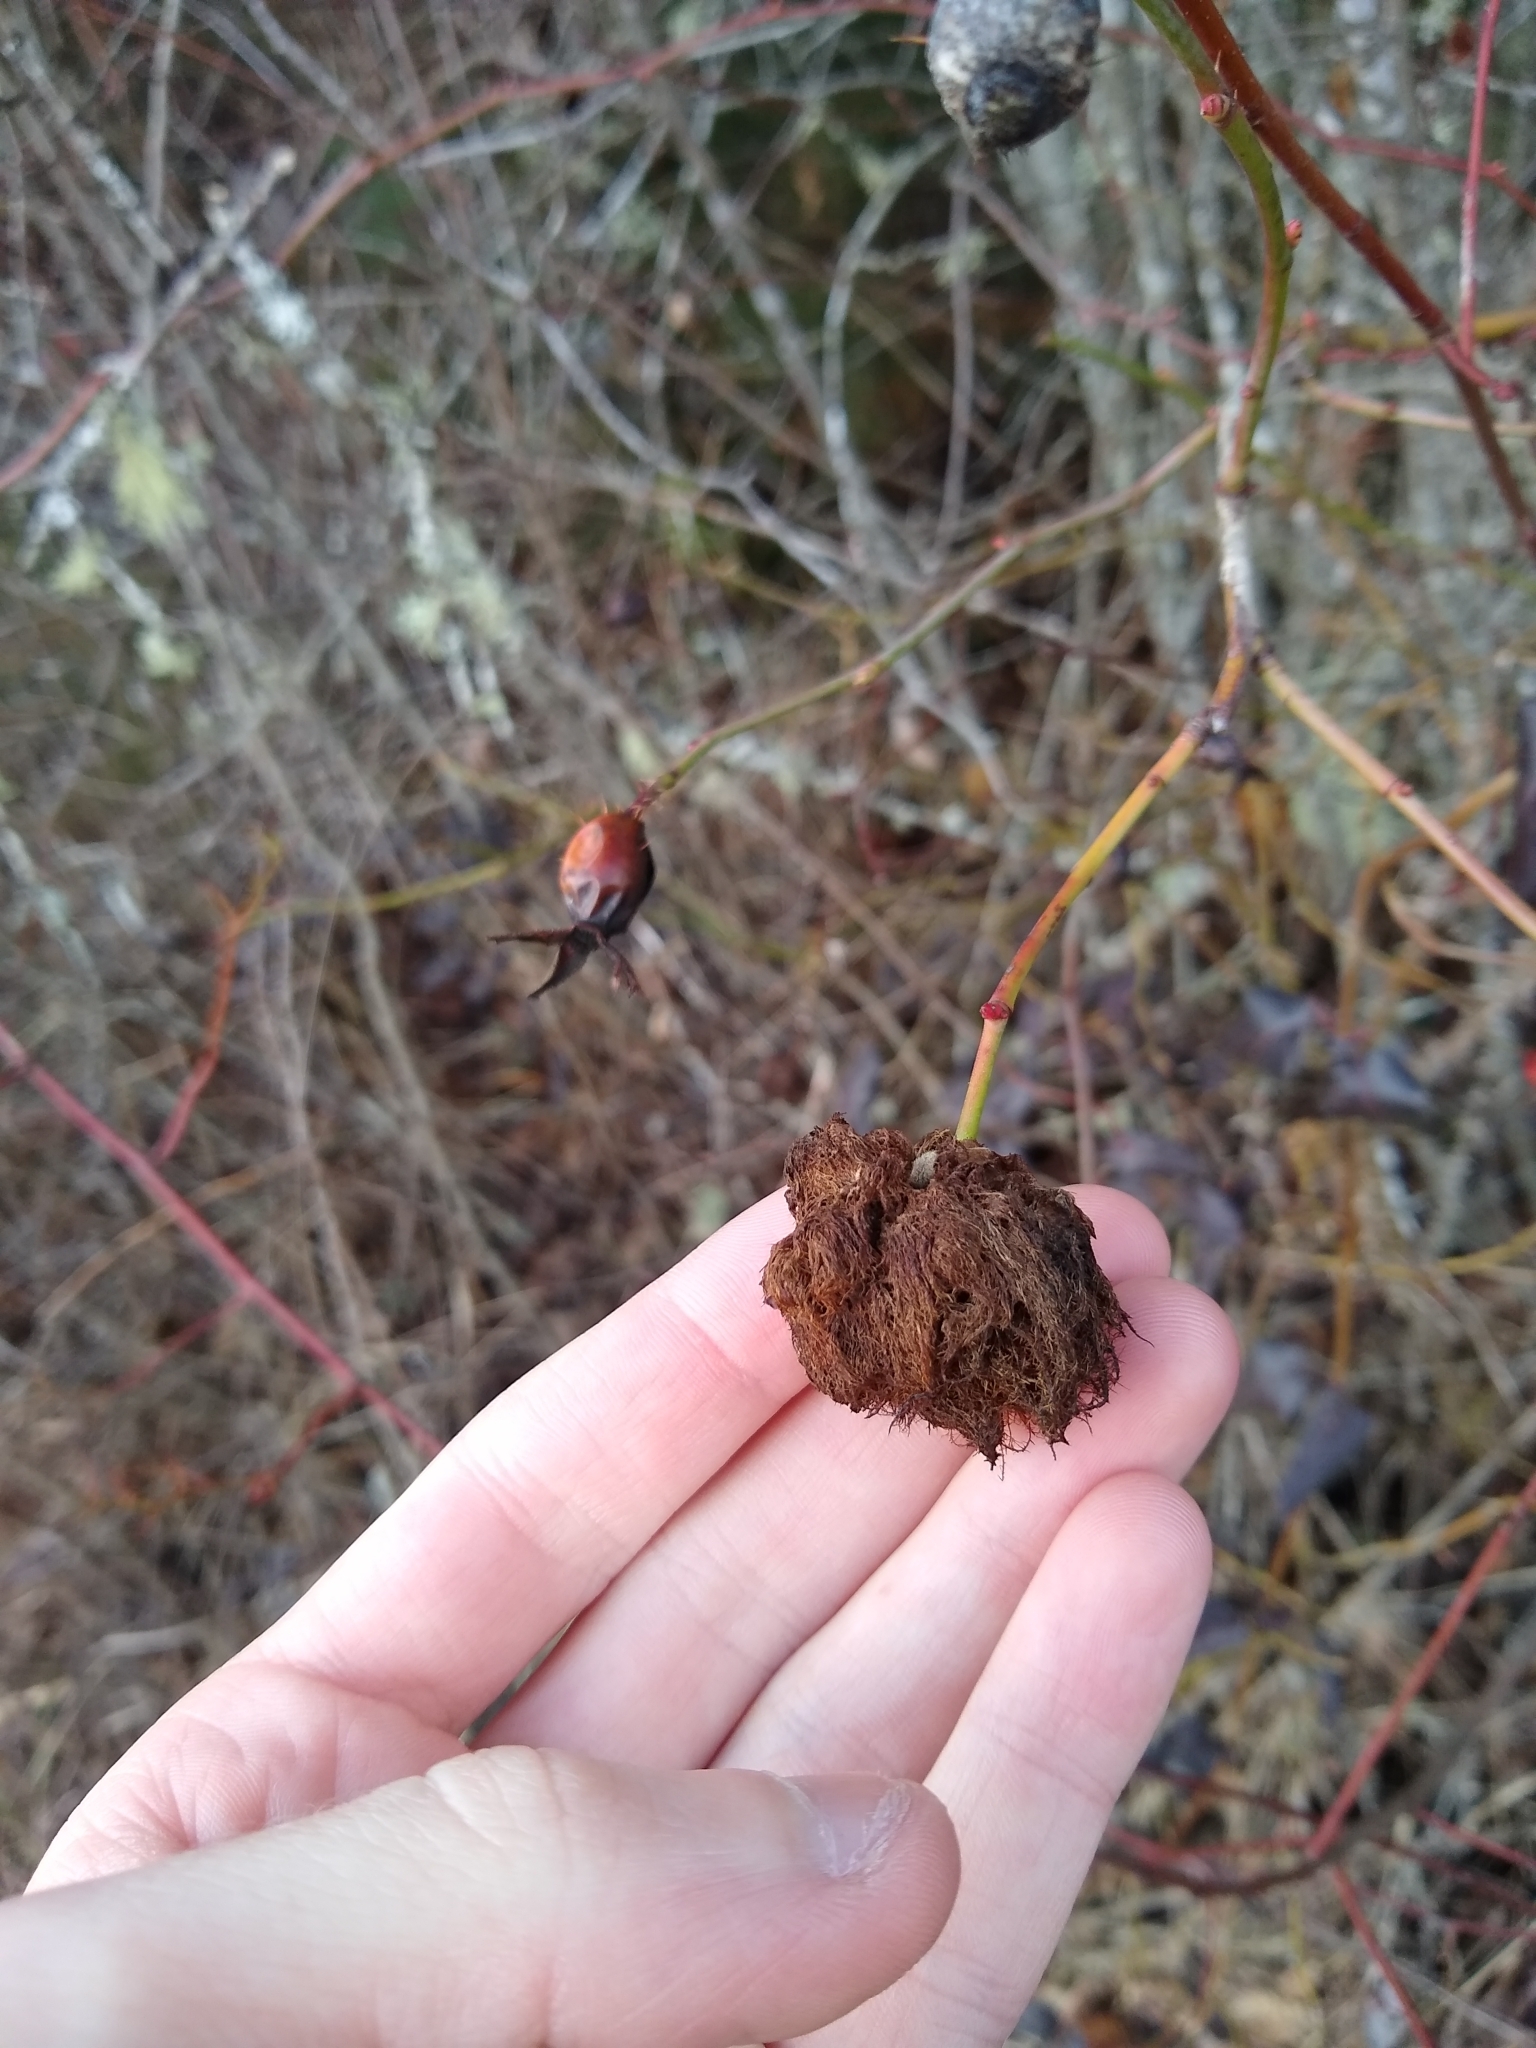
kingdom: Animalia
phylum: Arthropoda
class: Insecta
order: Hymenoptera
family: Cynipidae
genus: Diplolepis
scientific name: Diplolepis rosae
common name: Bedeguar gall
